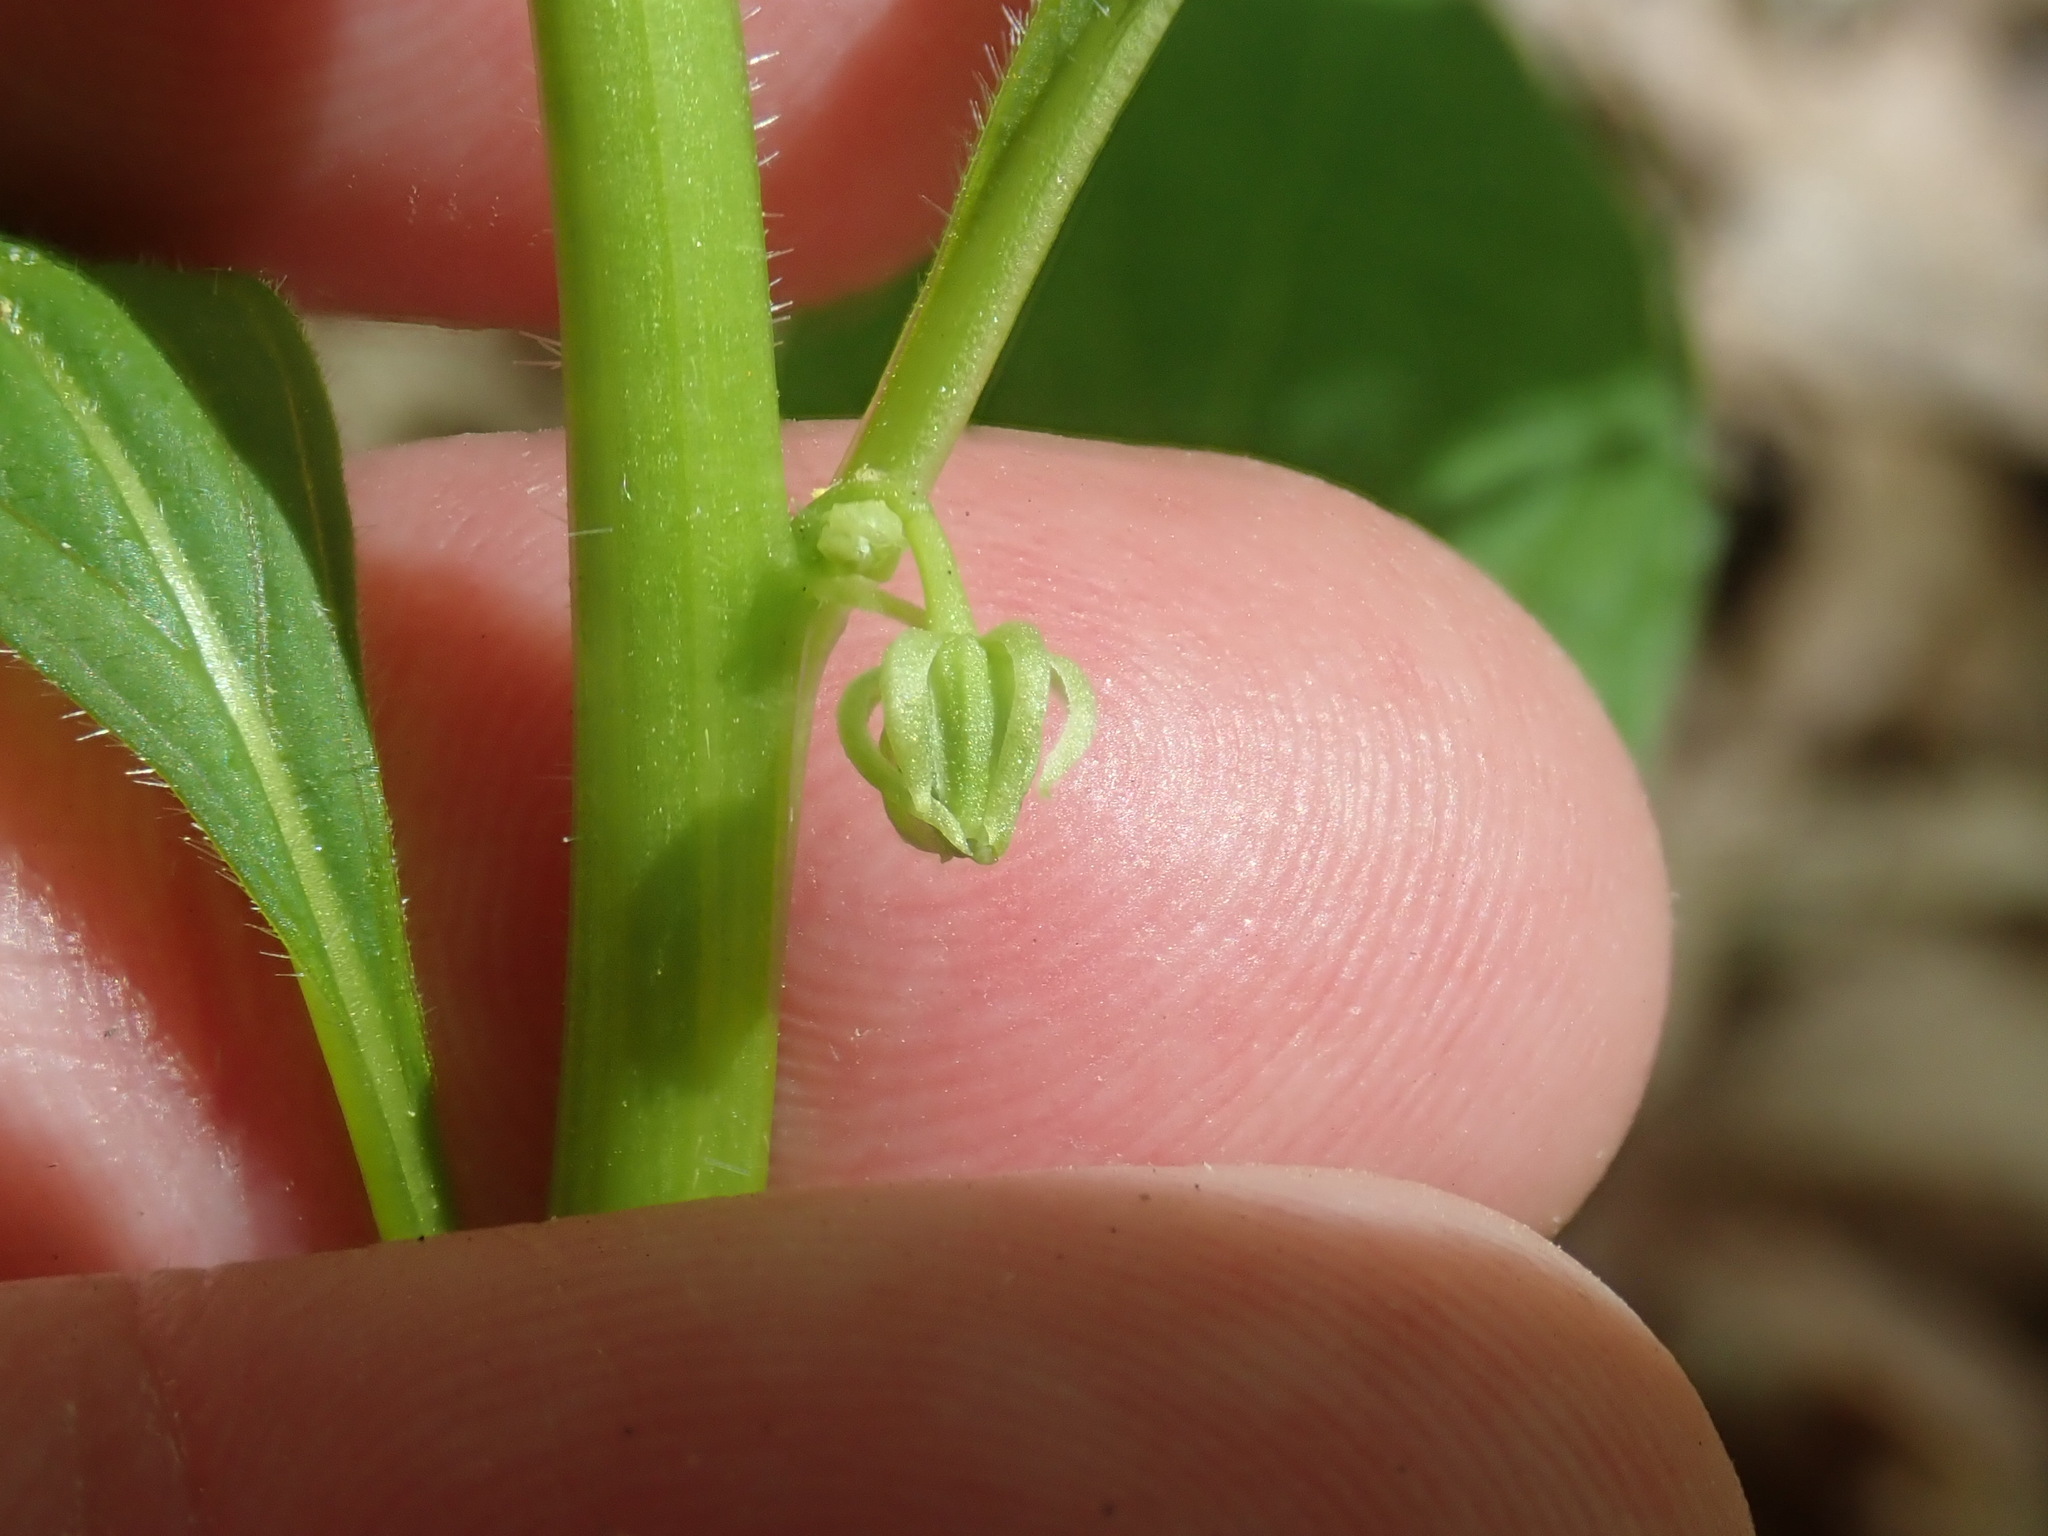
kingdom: Plantae
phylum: Tracheophyta
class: Magnoliopsida
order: Malpighiales
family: Violaceae
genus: Cubelium
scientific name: Cubelium concolor
